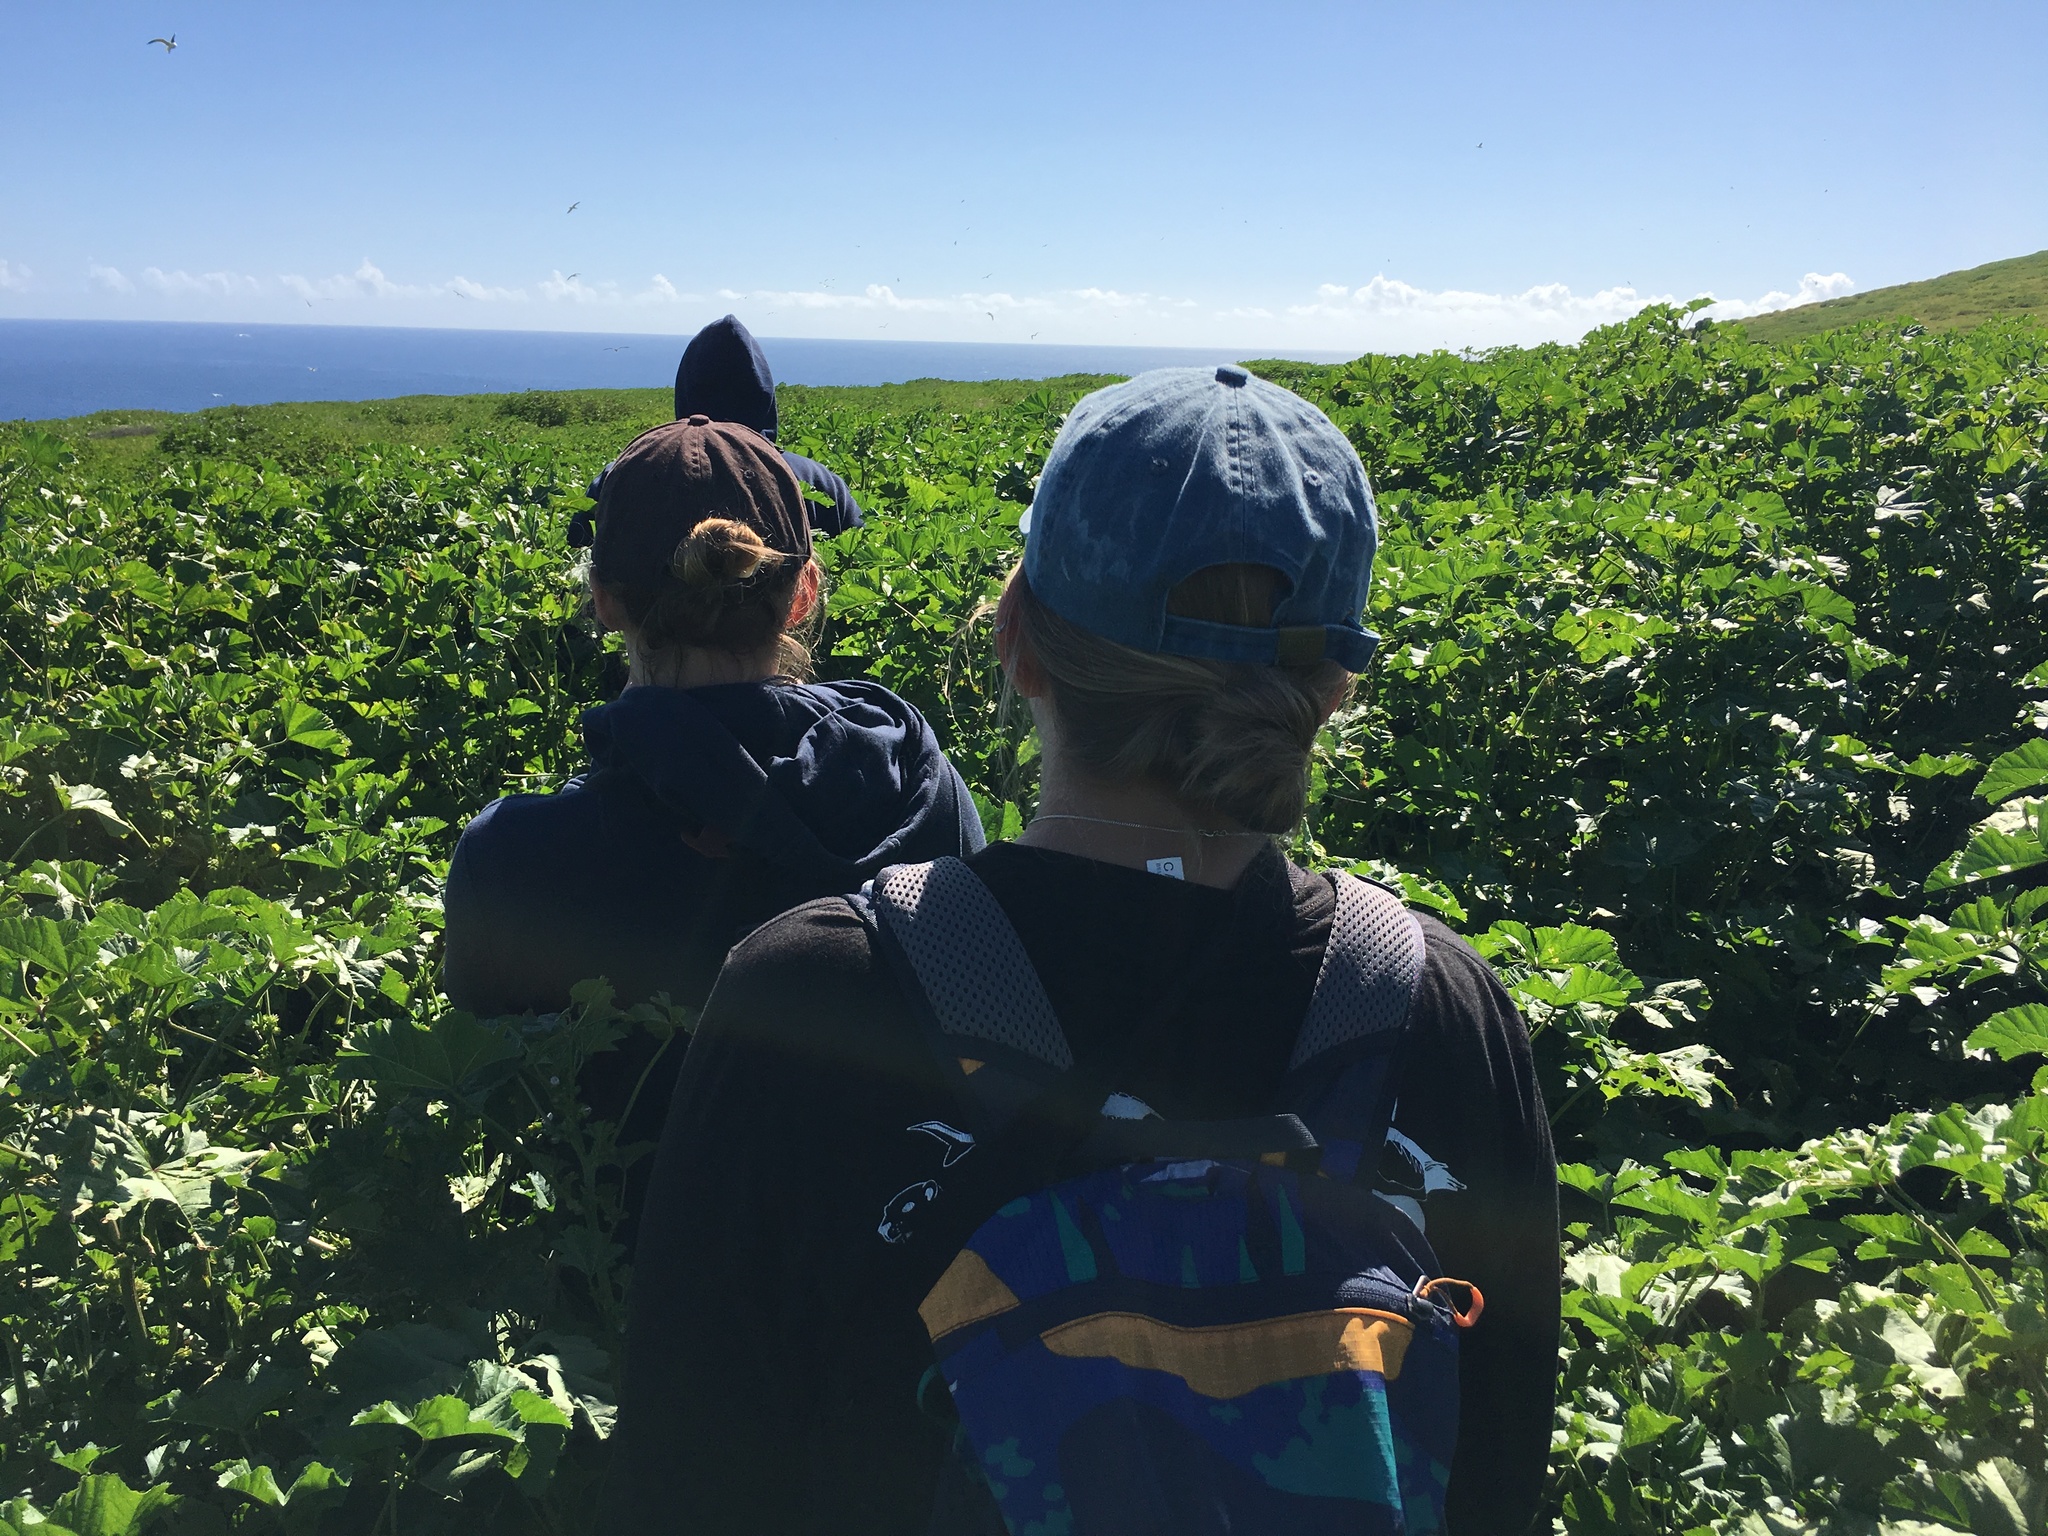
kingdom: Plantae
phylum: Tracheophyta
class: Magnoliopsida
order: Malvales
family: Malvaceae
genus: Malva
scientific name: Malva parviflora
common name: Least mallow
